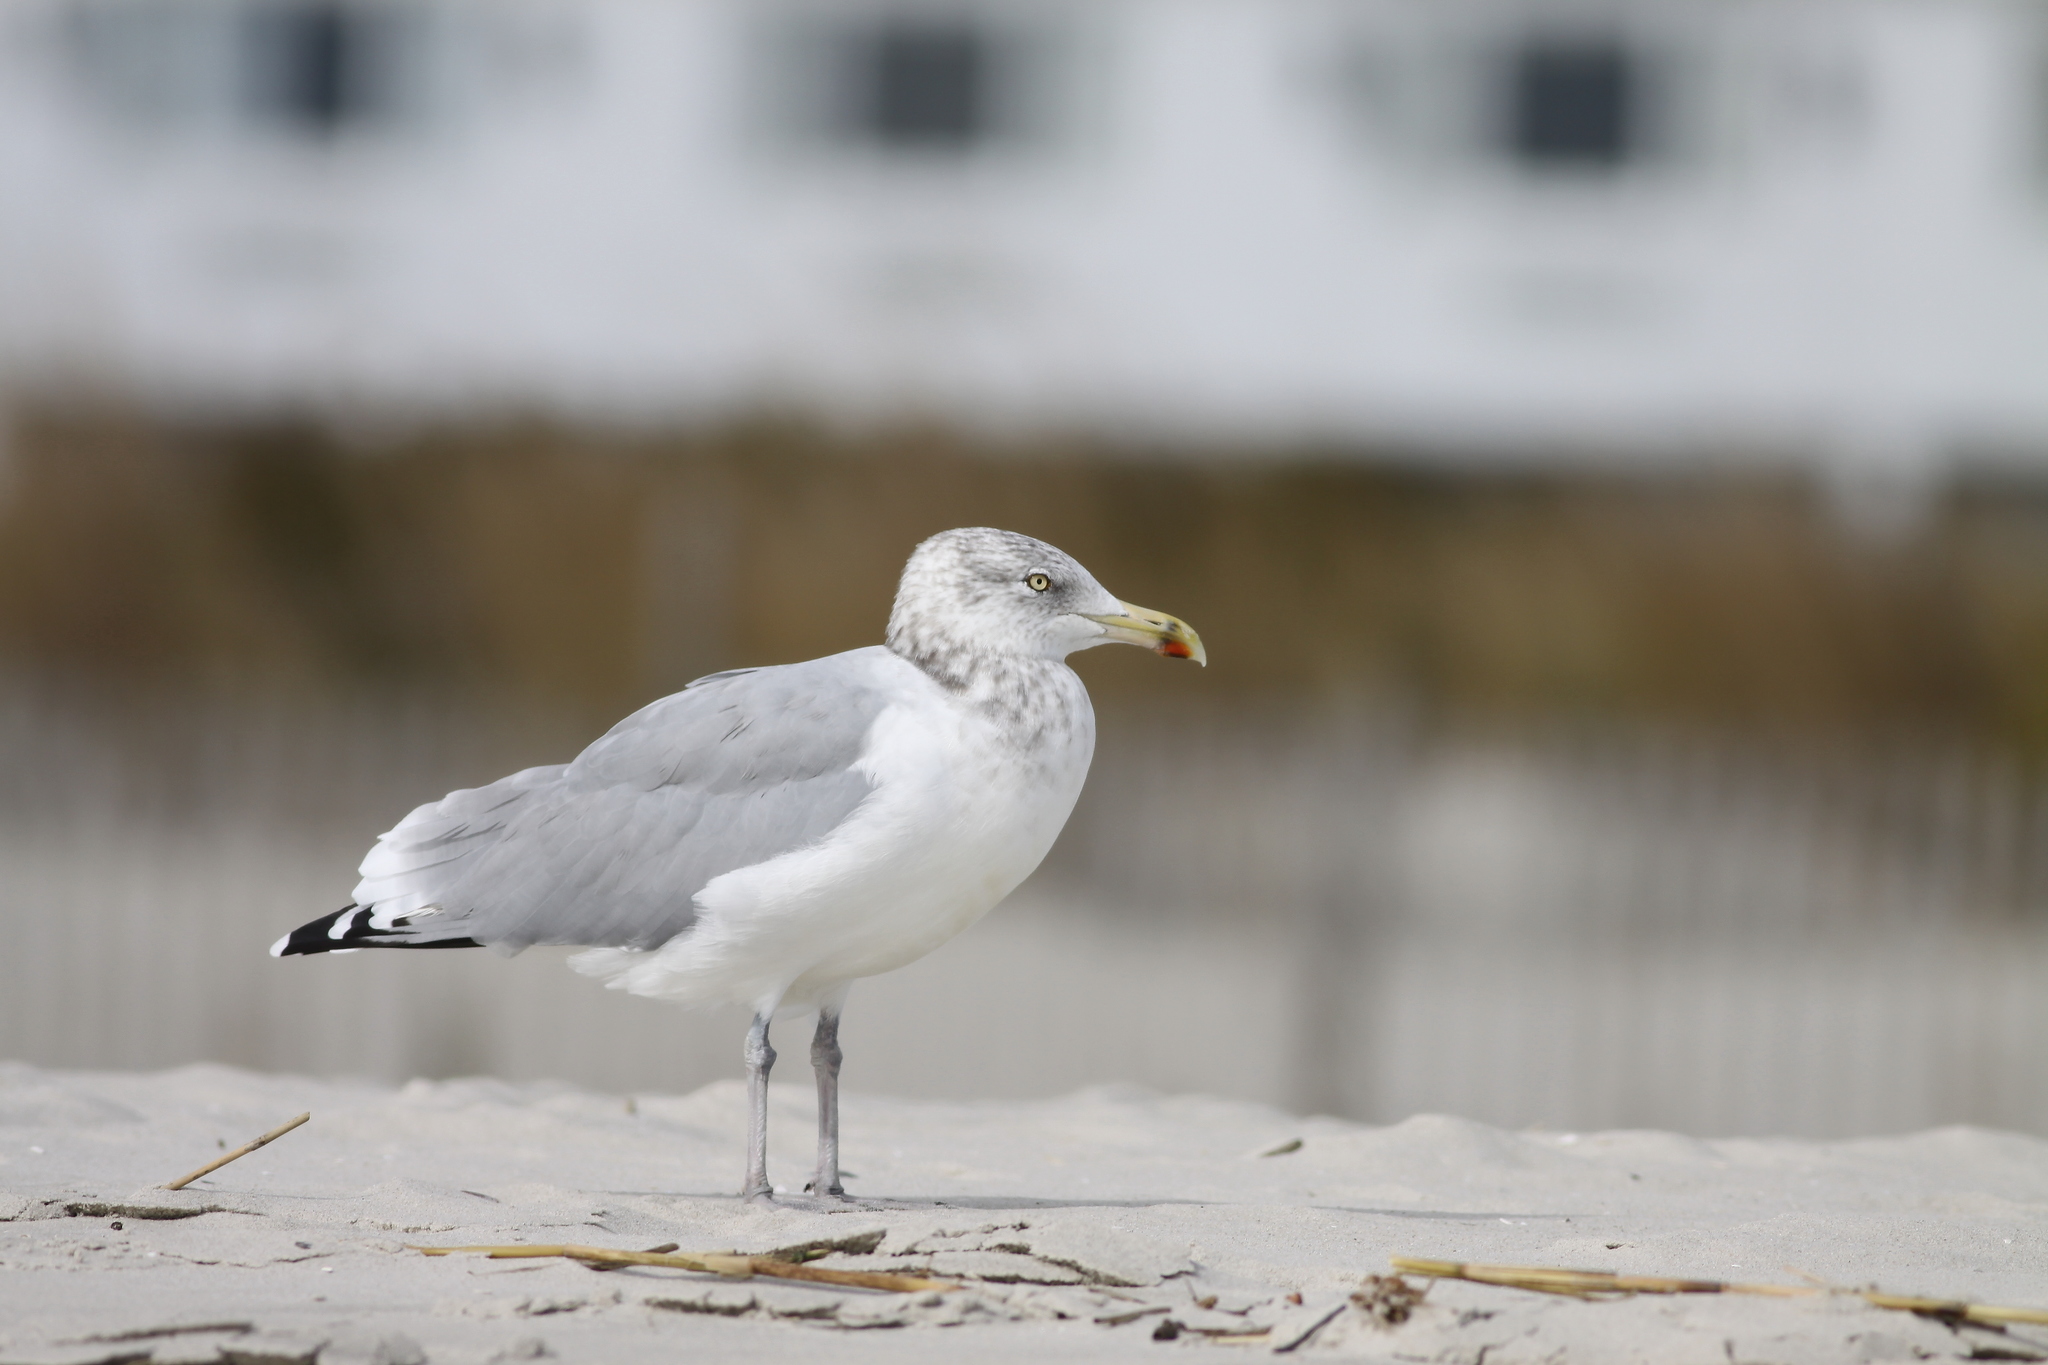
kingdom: Animalia
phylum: Chordata
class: Aves
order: Charadriiformes
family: Laridae
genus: Larus
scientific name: Larus argentatus
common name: Herring gull
